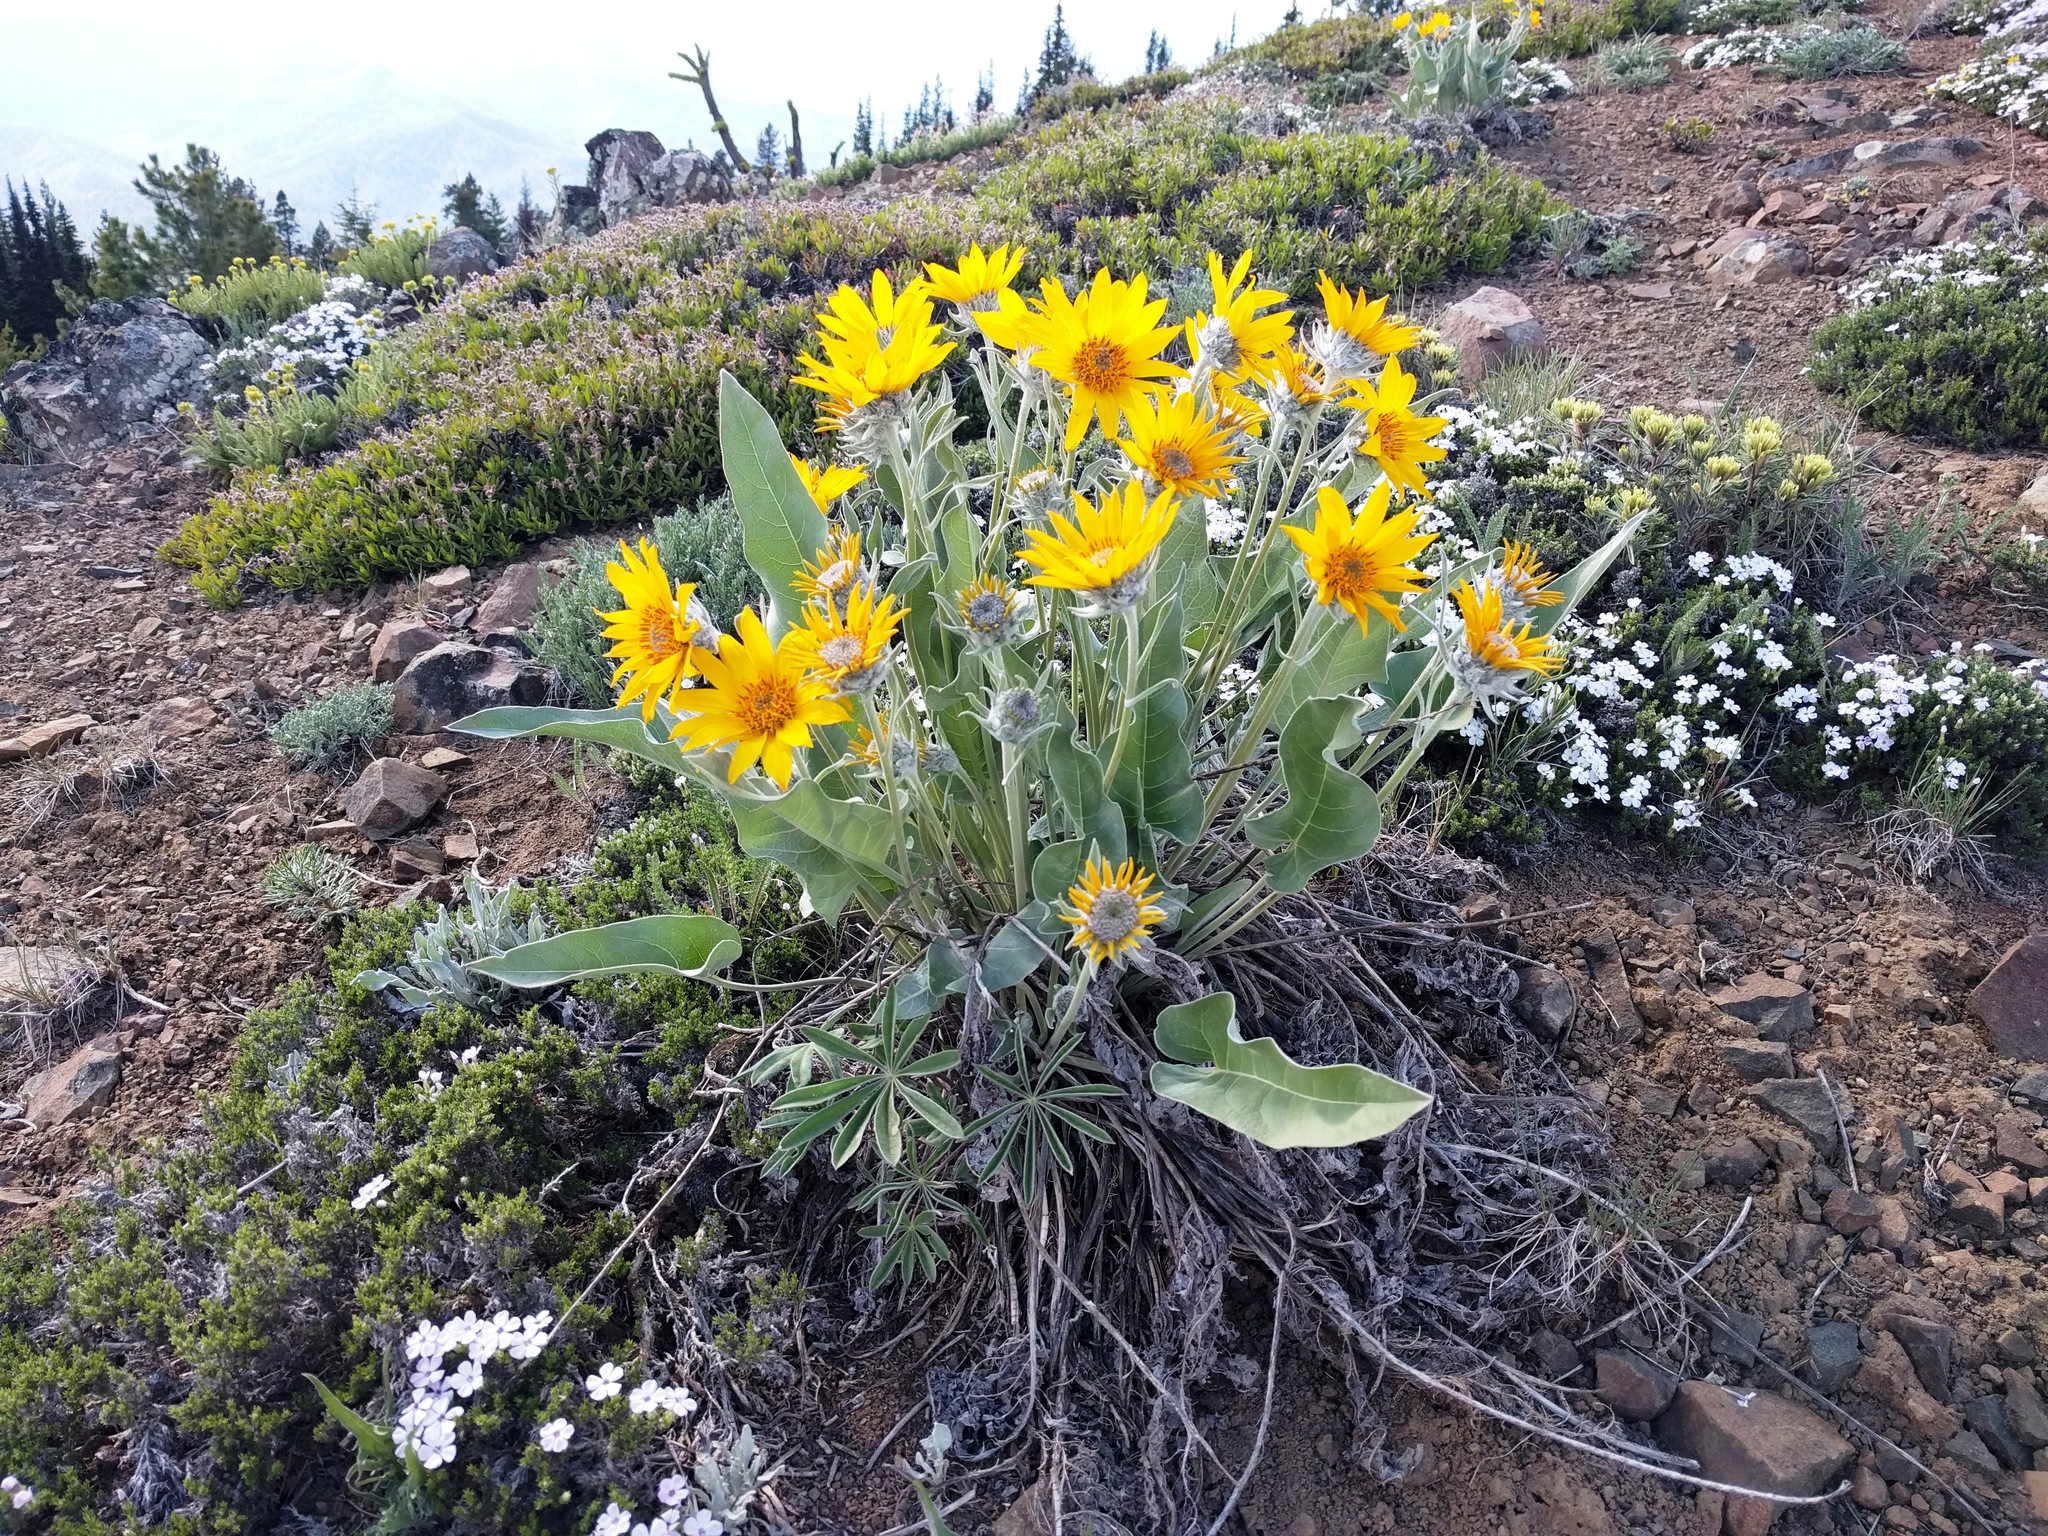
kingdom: Plantae
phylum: Tracheophyta
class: Magnoliopsida
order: Asterales
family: Asteraceae
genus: Wyethia
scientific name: Wyethia sagittata
